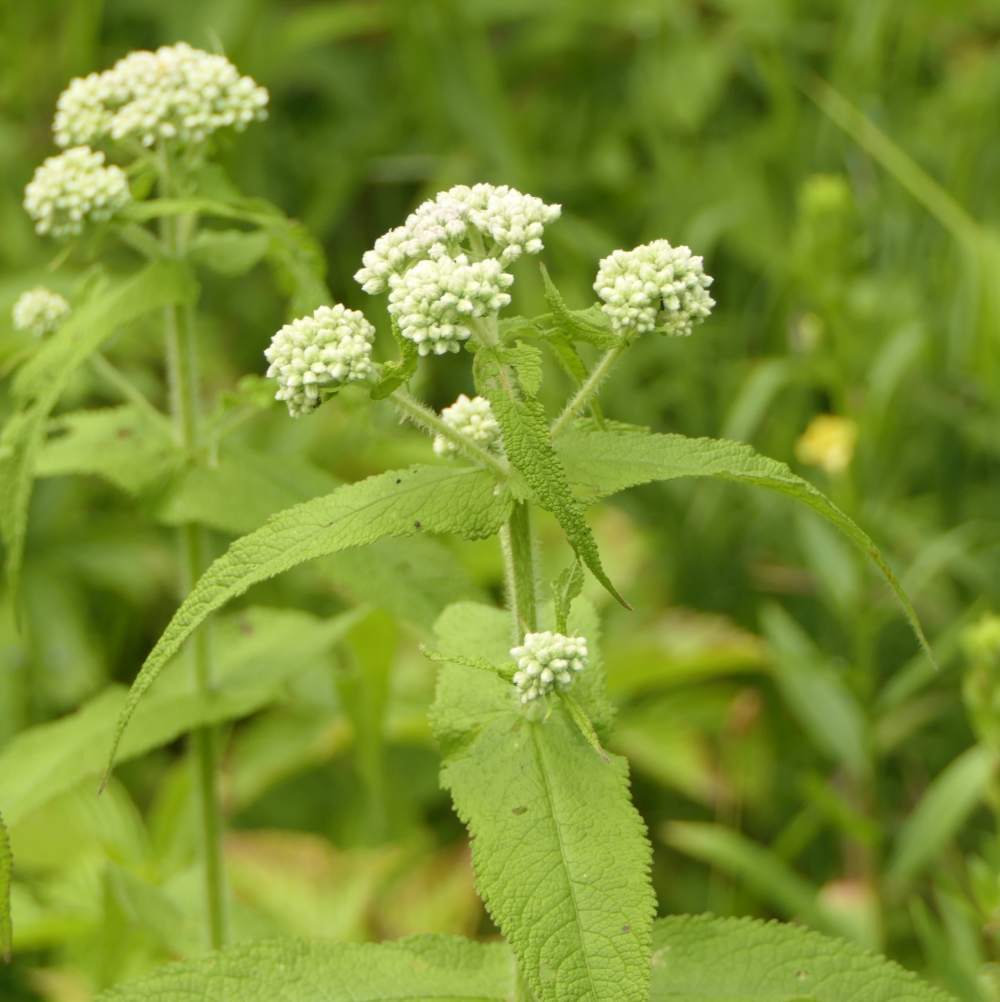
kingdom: Plantae
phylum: Tracheophyta
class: Magnoliopsida
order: Asterales
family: Asteraceae
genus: Eupatorium
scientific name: Eupatorium perfoliatum
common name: Boneset
